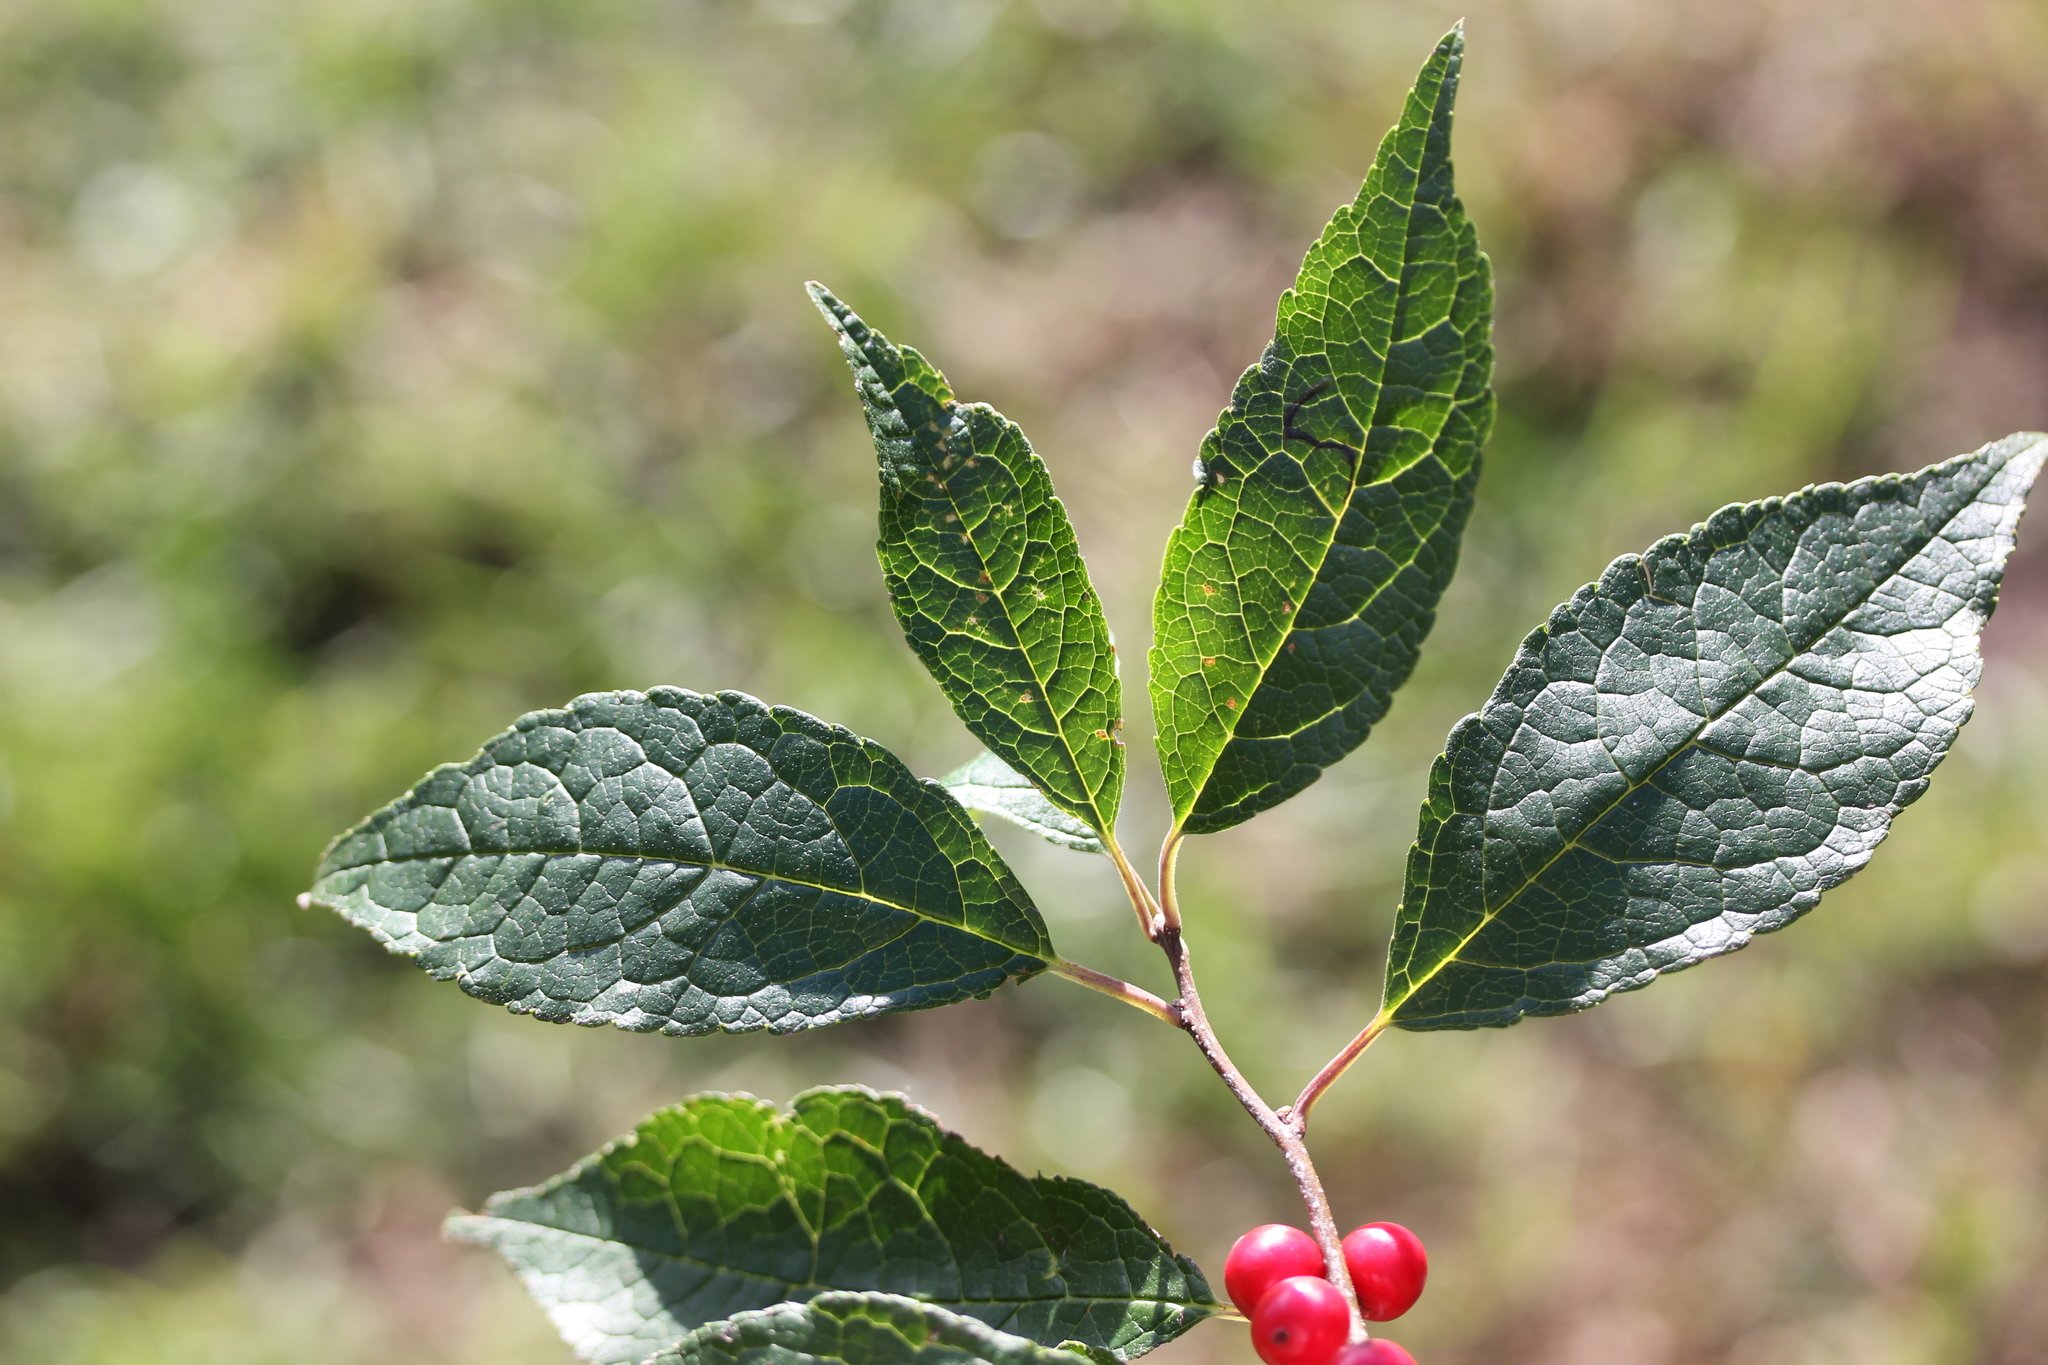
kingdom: Plantae
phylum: Tracheophyta
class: Magnoliopsida
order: Aquifoliales
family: Aquifoliaceae
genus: Ilex
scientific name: Ilex verticillata
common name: Virginia winterberry
